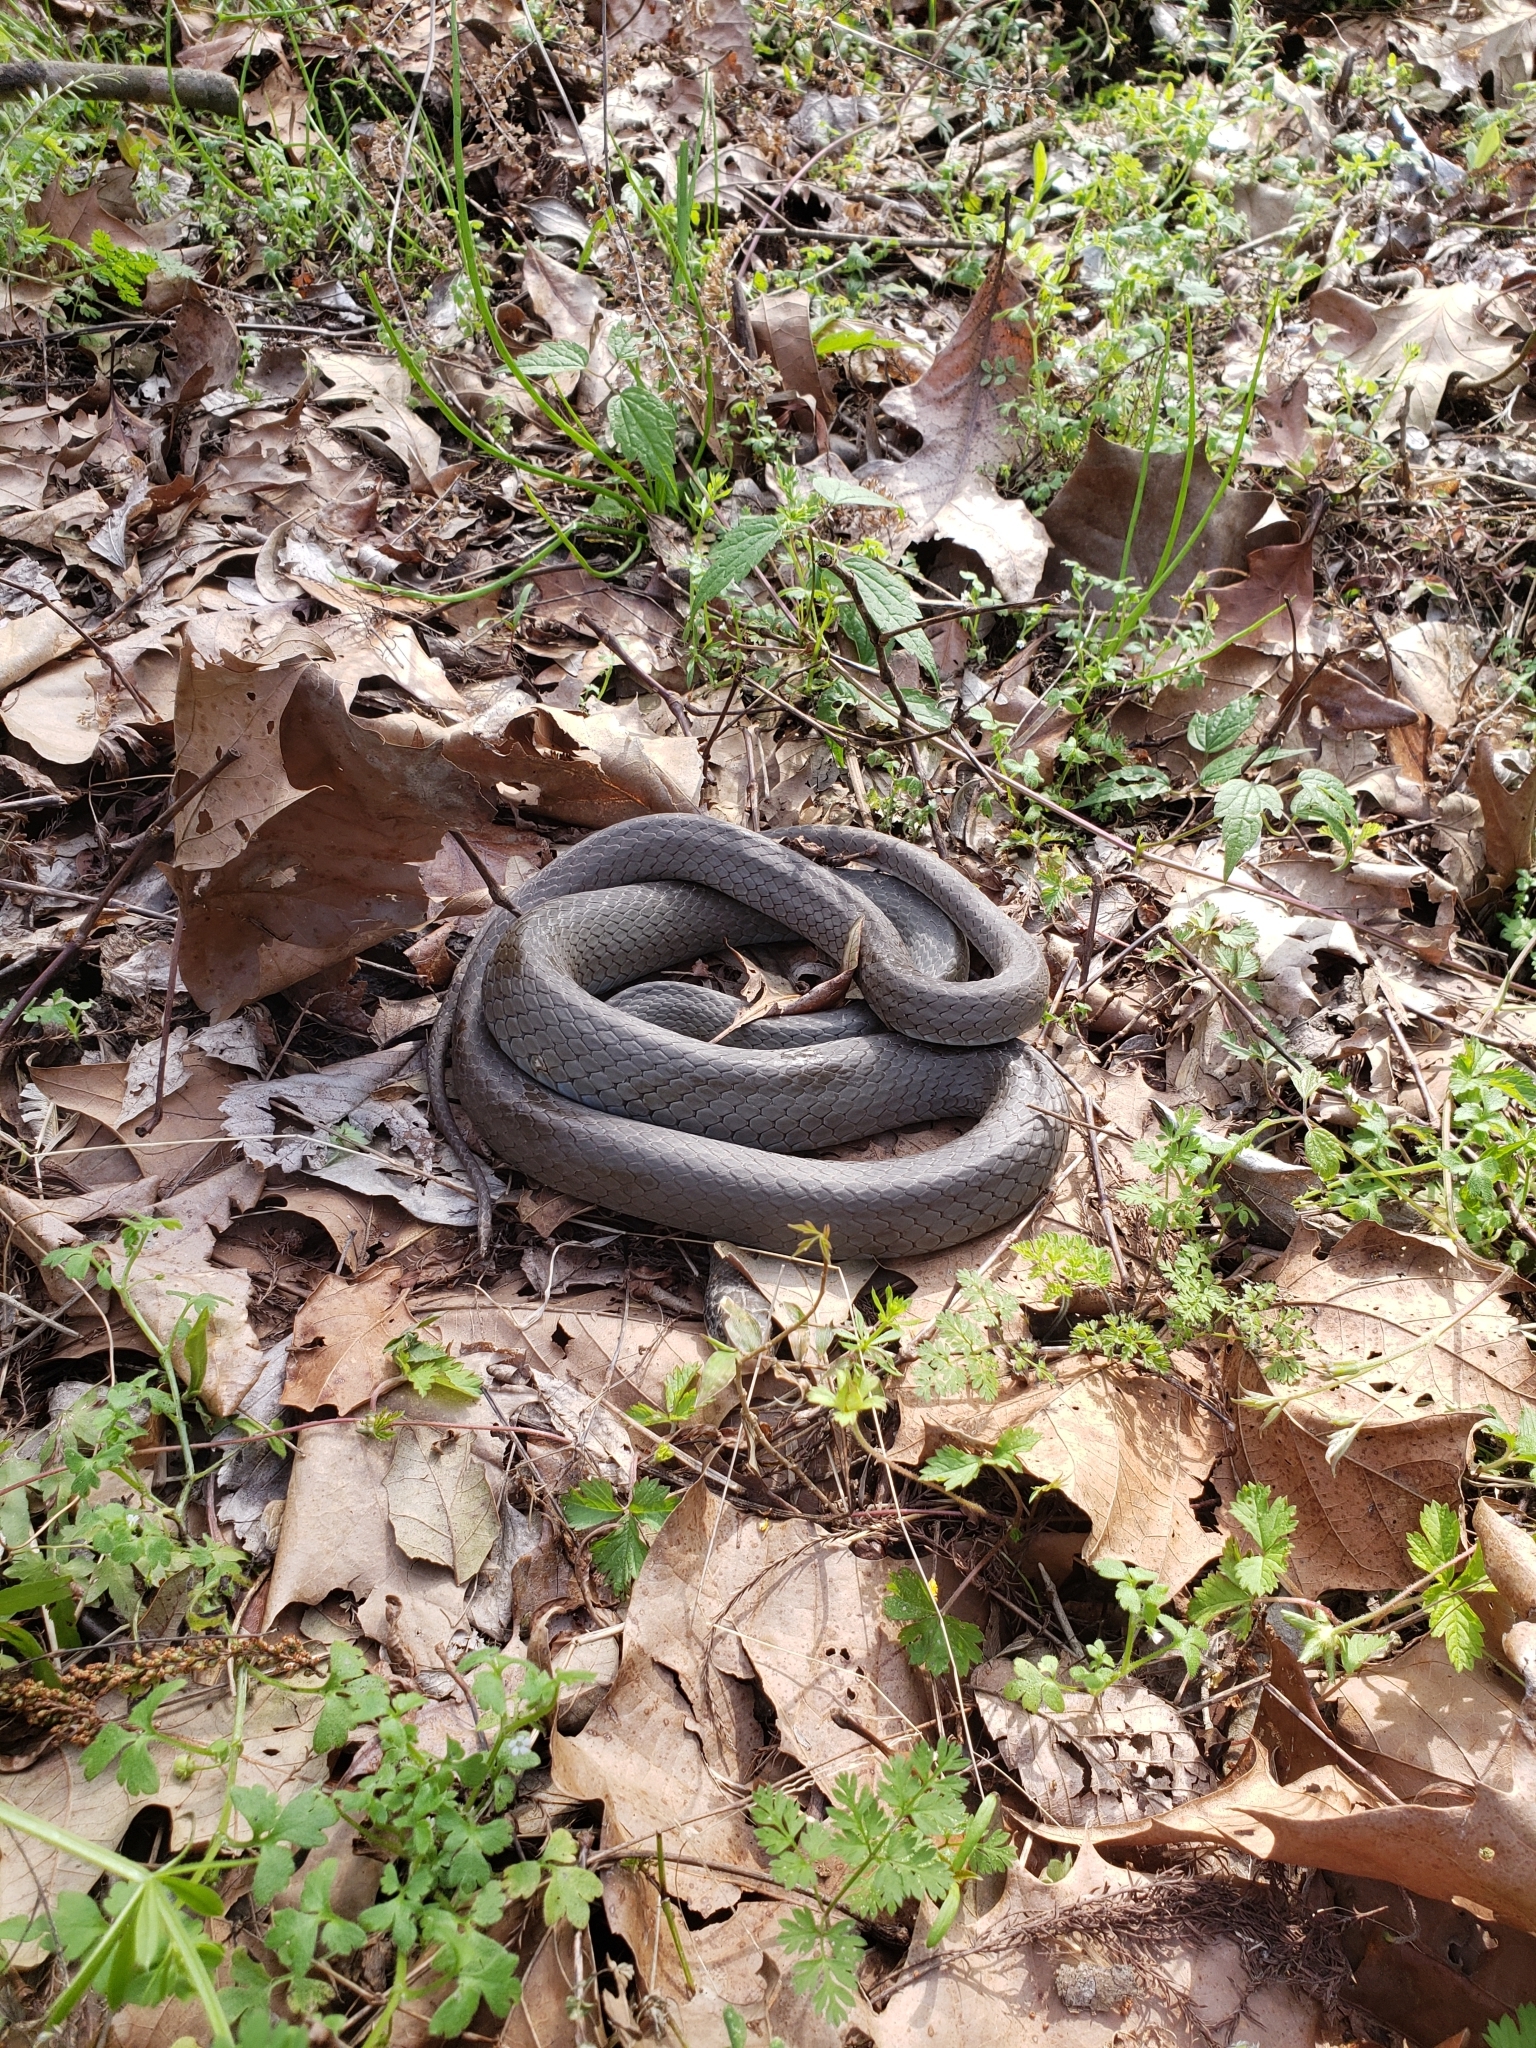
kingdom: Animalia
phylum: Chordata
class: Squamata
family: Colubridae
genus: Coluber
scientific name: Coluber constrictor
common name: Eastern racer
